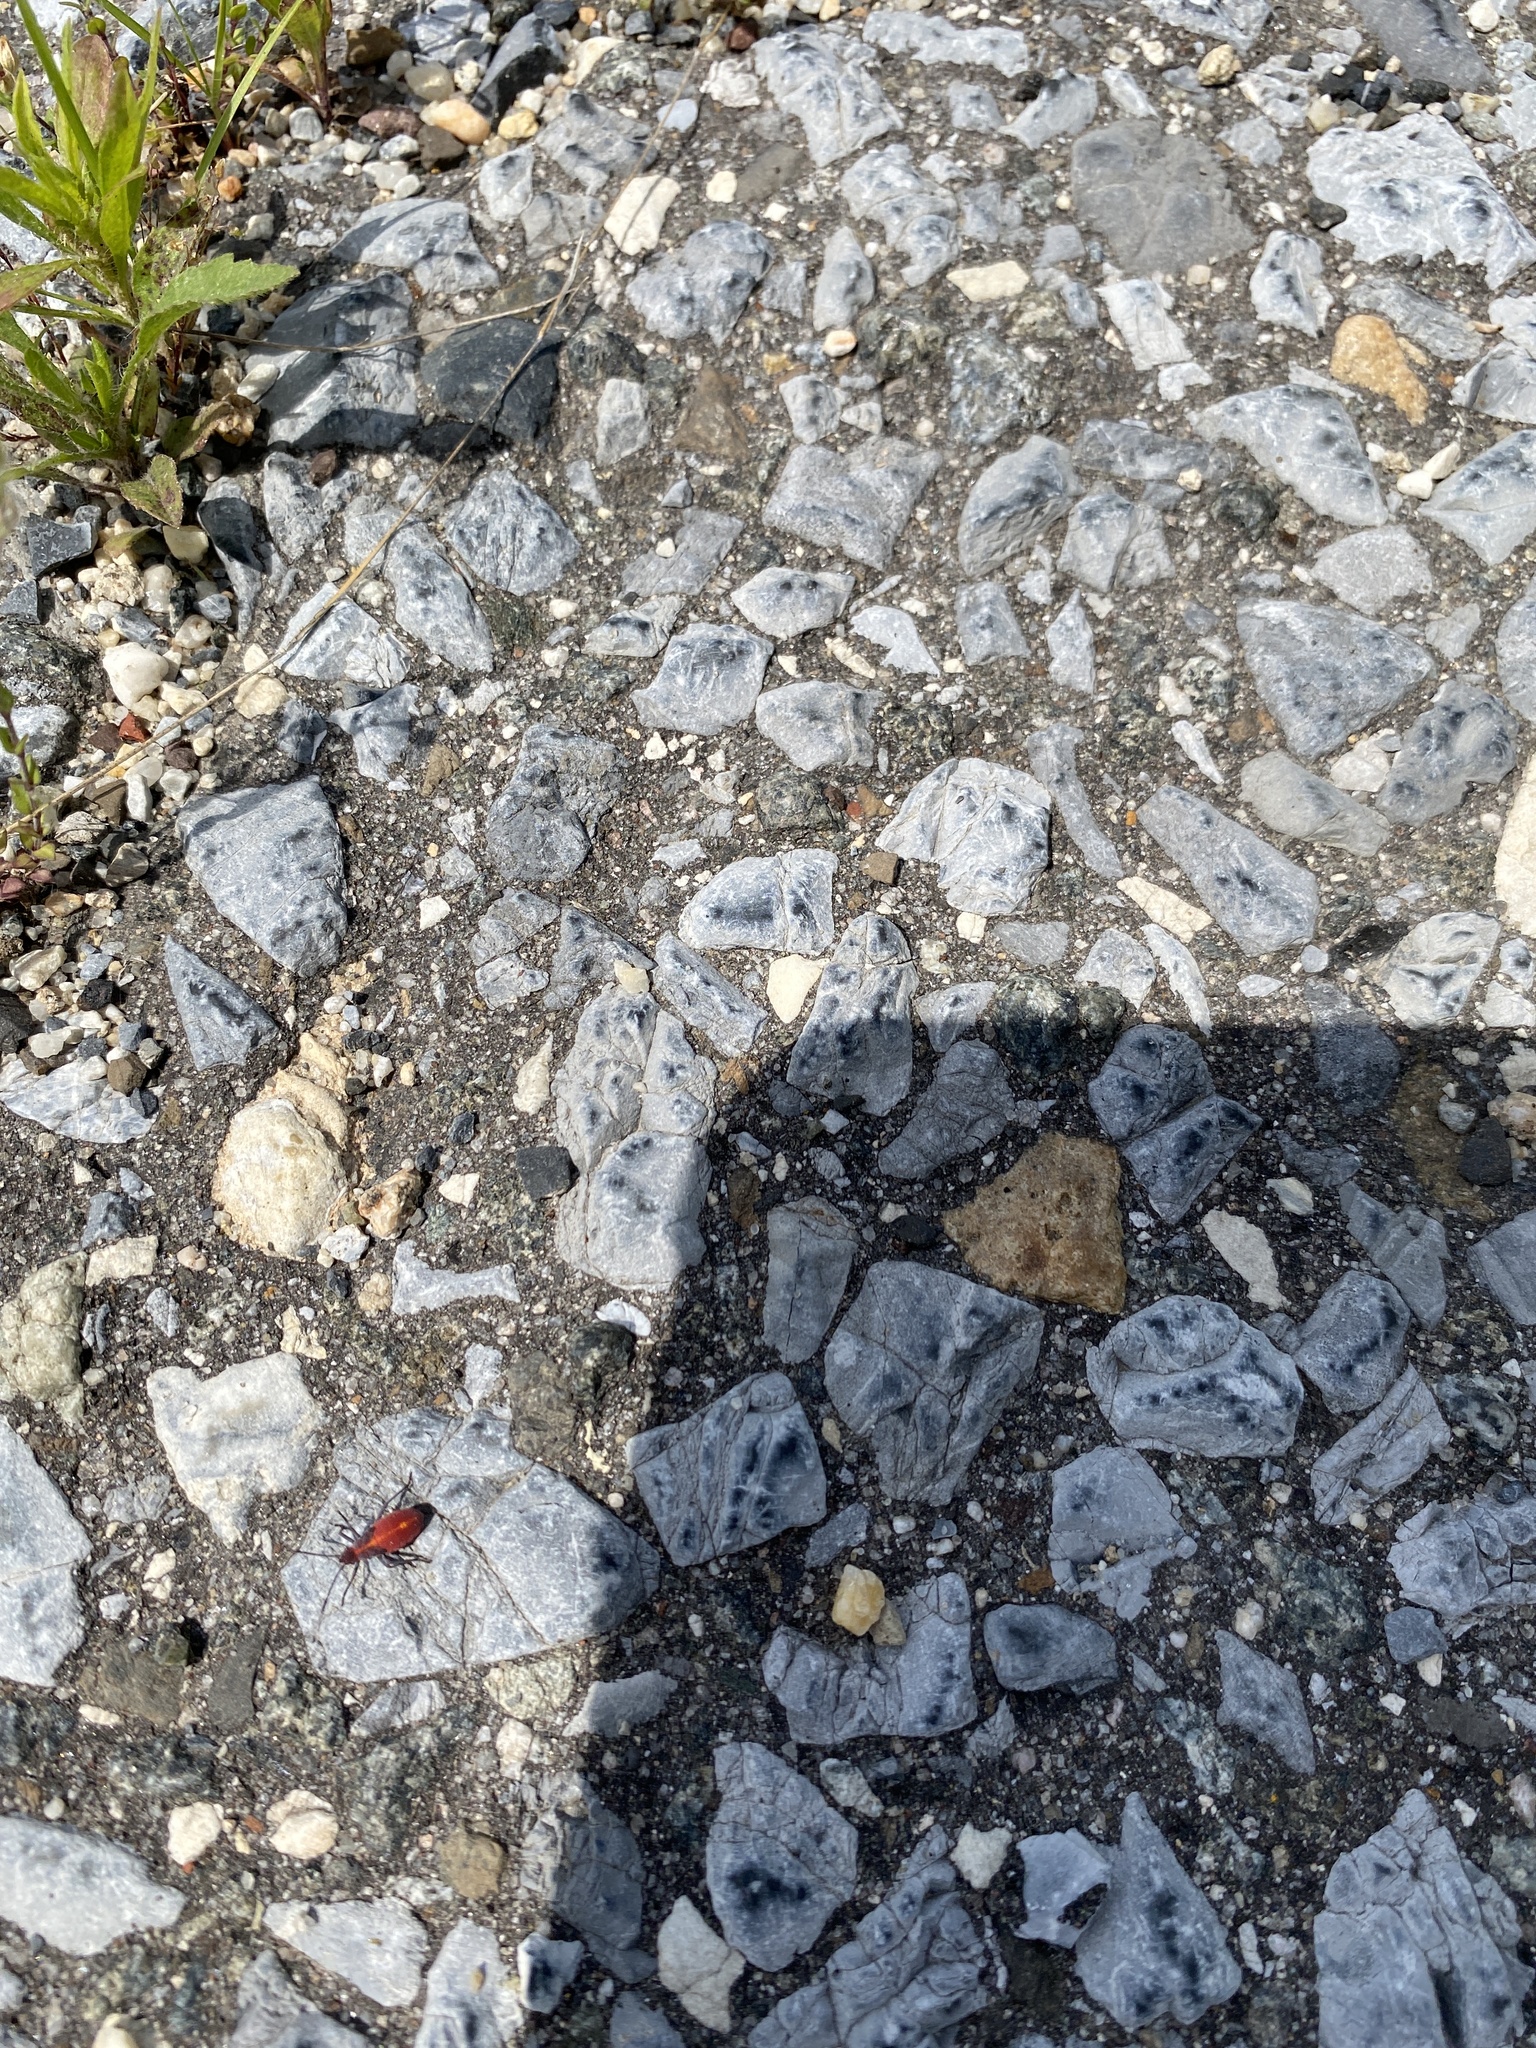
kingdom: Animalia
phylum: Arthropoda
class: Insecta
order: Hemiptera
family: Rhopalidae
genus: Boisea
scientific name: Boisea trivittata
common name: Boxelder bug
